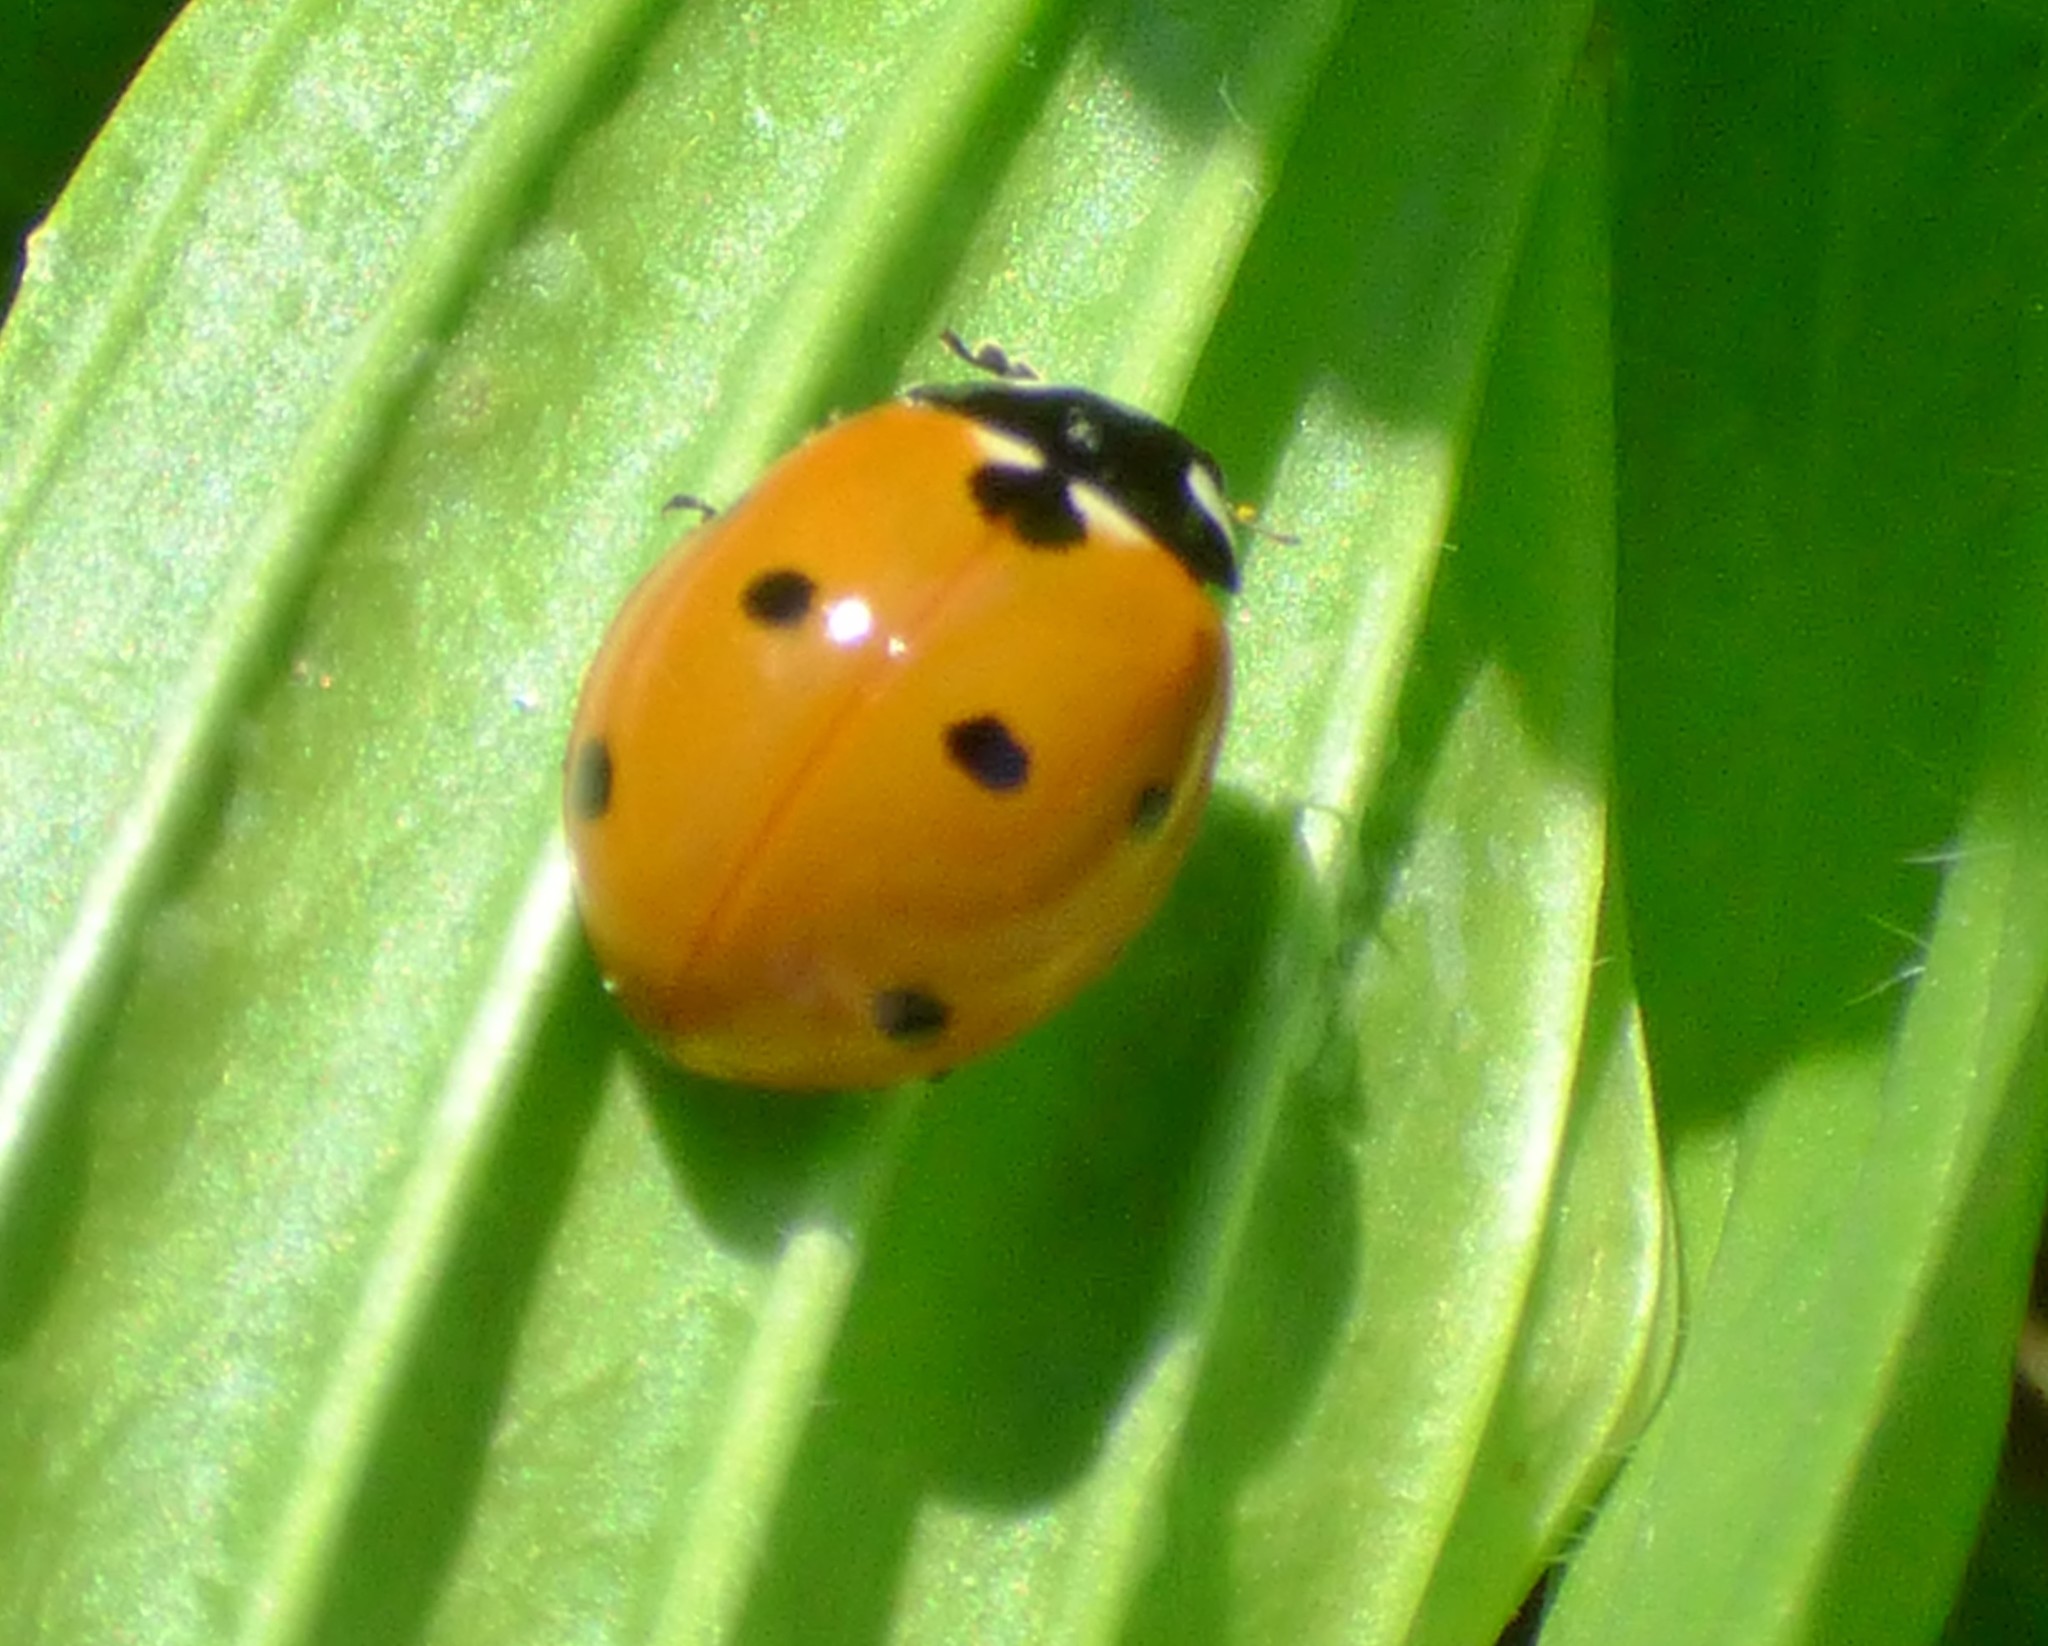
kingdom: Animalia
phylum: Arthropoda
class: Insecta
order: Coleoptera
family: Coccinellidae
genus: Coccinella
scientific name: Coccinella septempunctata
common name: Sevenspotted lady beetle
